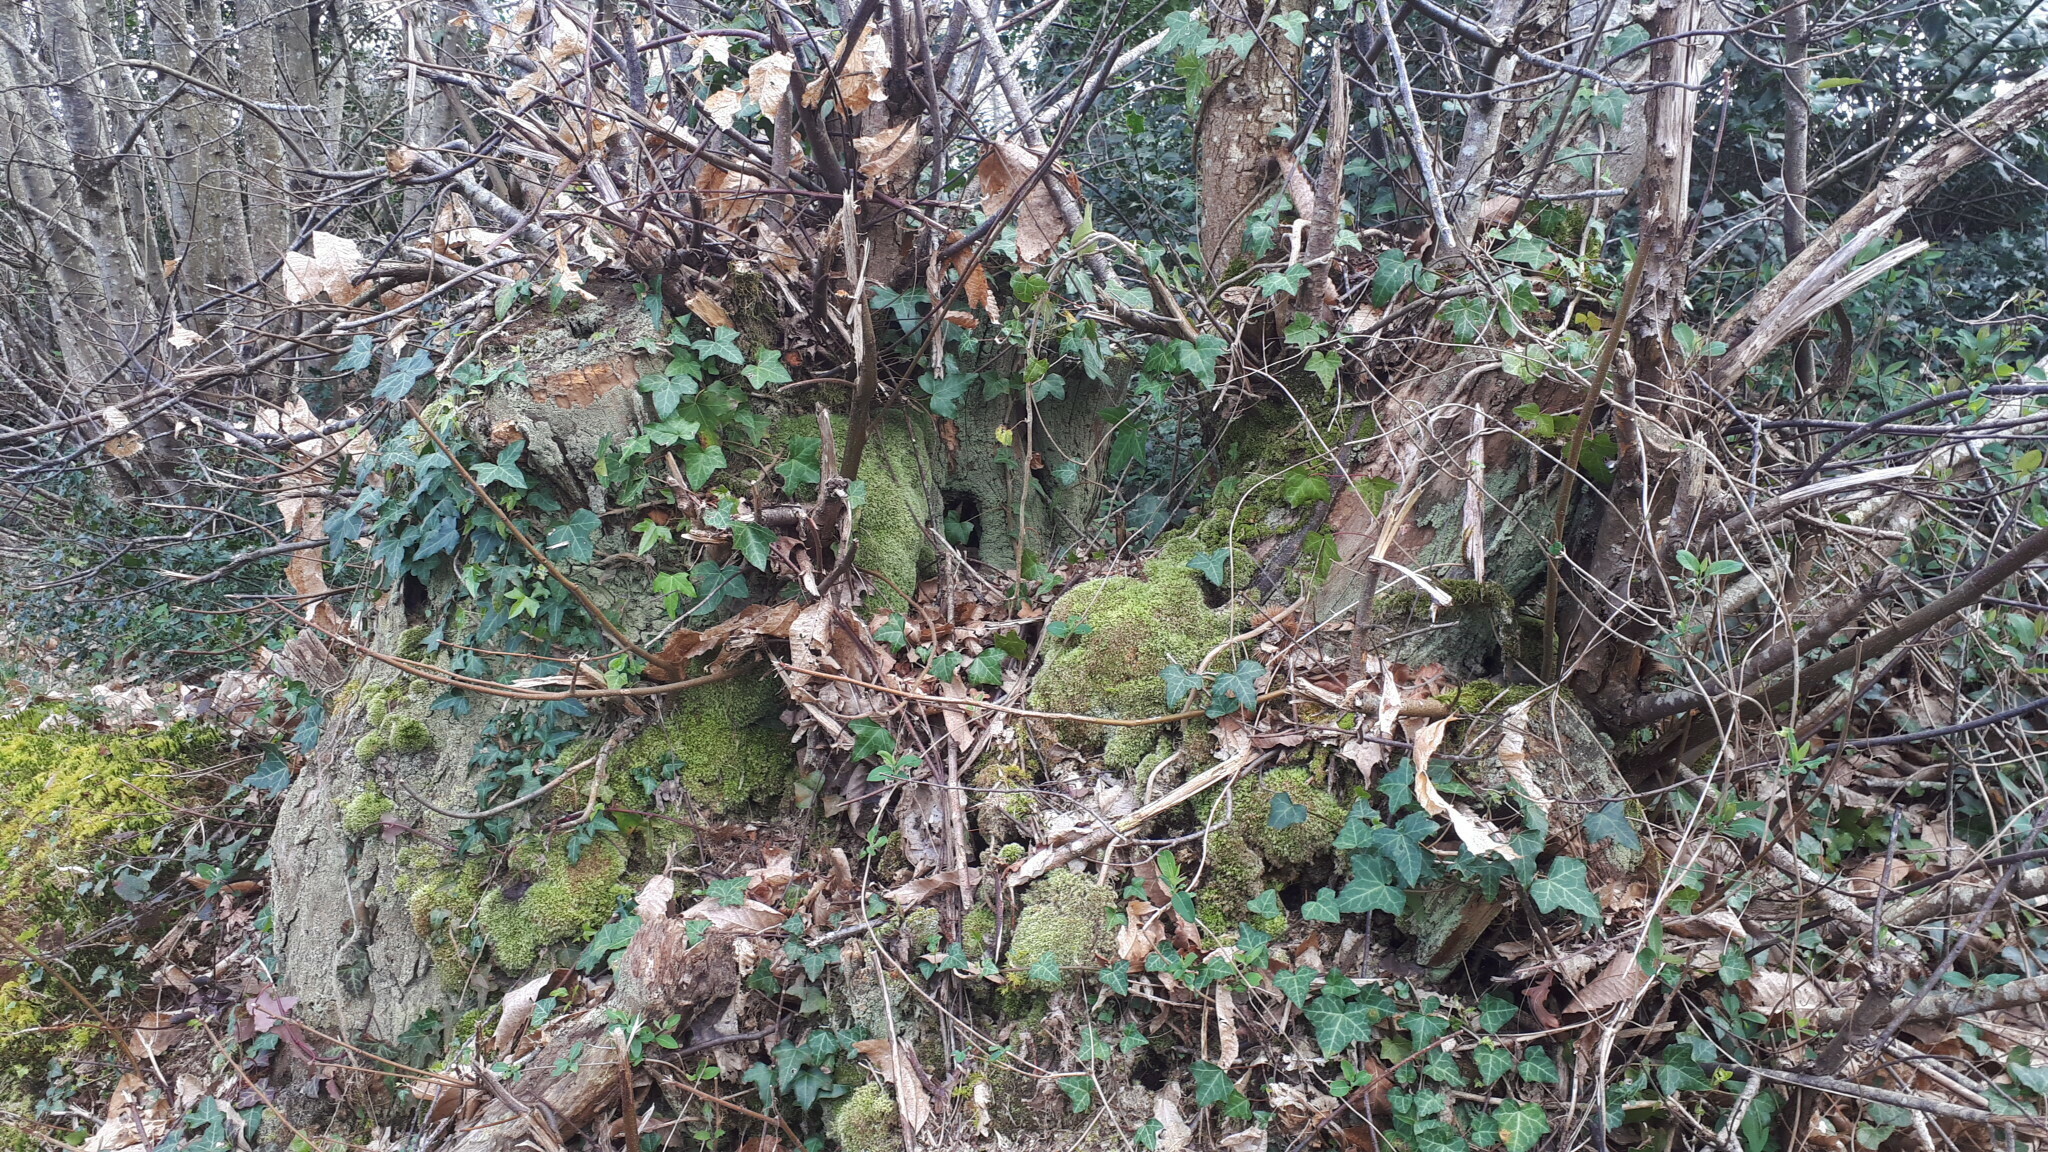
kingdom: Plantae
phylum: Bryophyta
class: Bryopsida
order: Dicranales
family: Leucobryaceae
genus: Leucobryum
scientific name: Leucobryum glaucum
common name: Large white-moss
